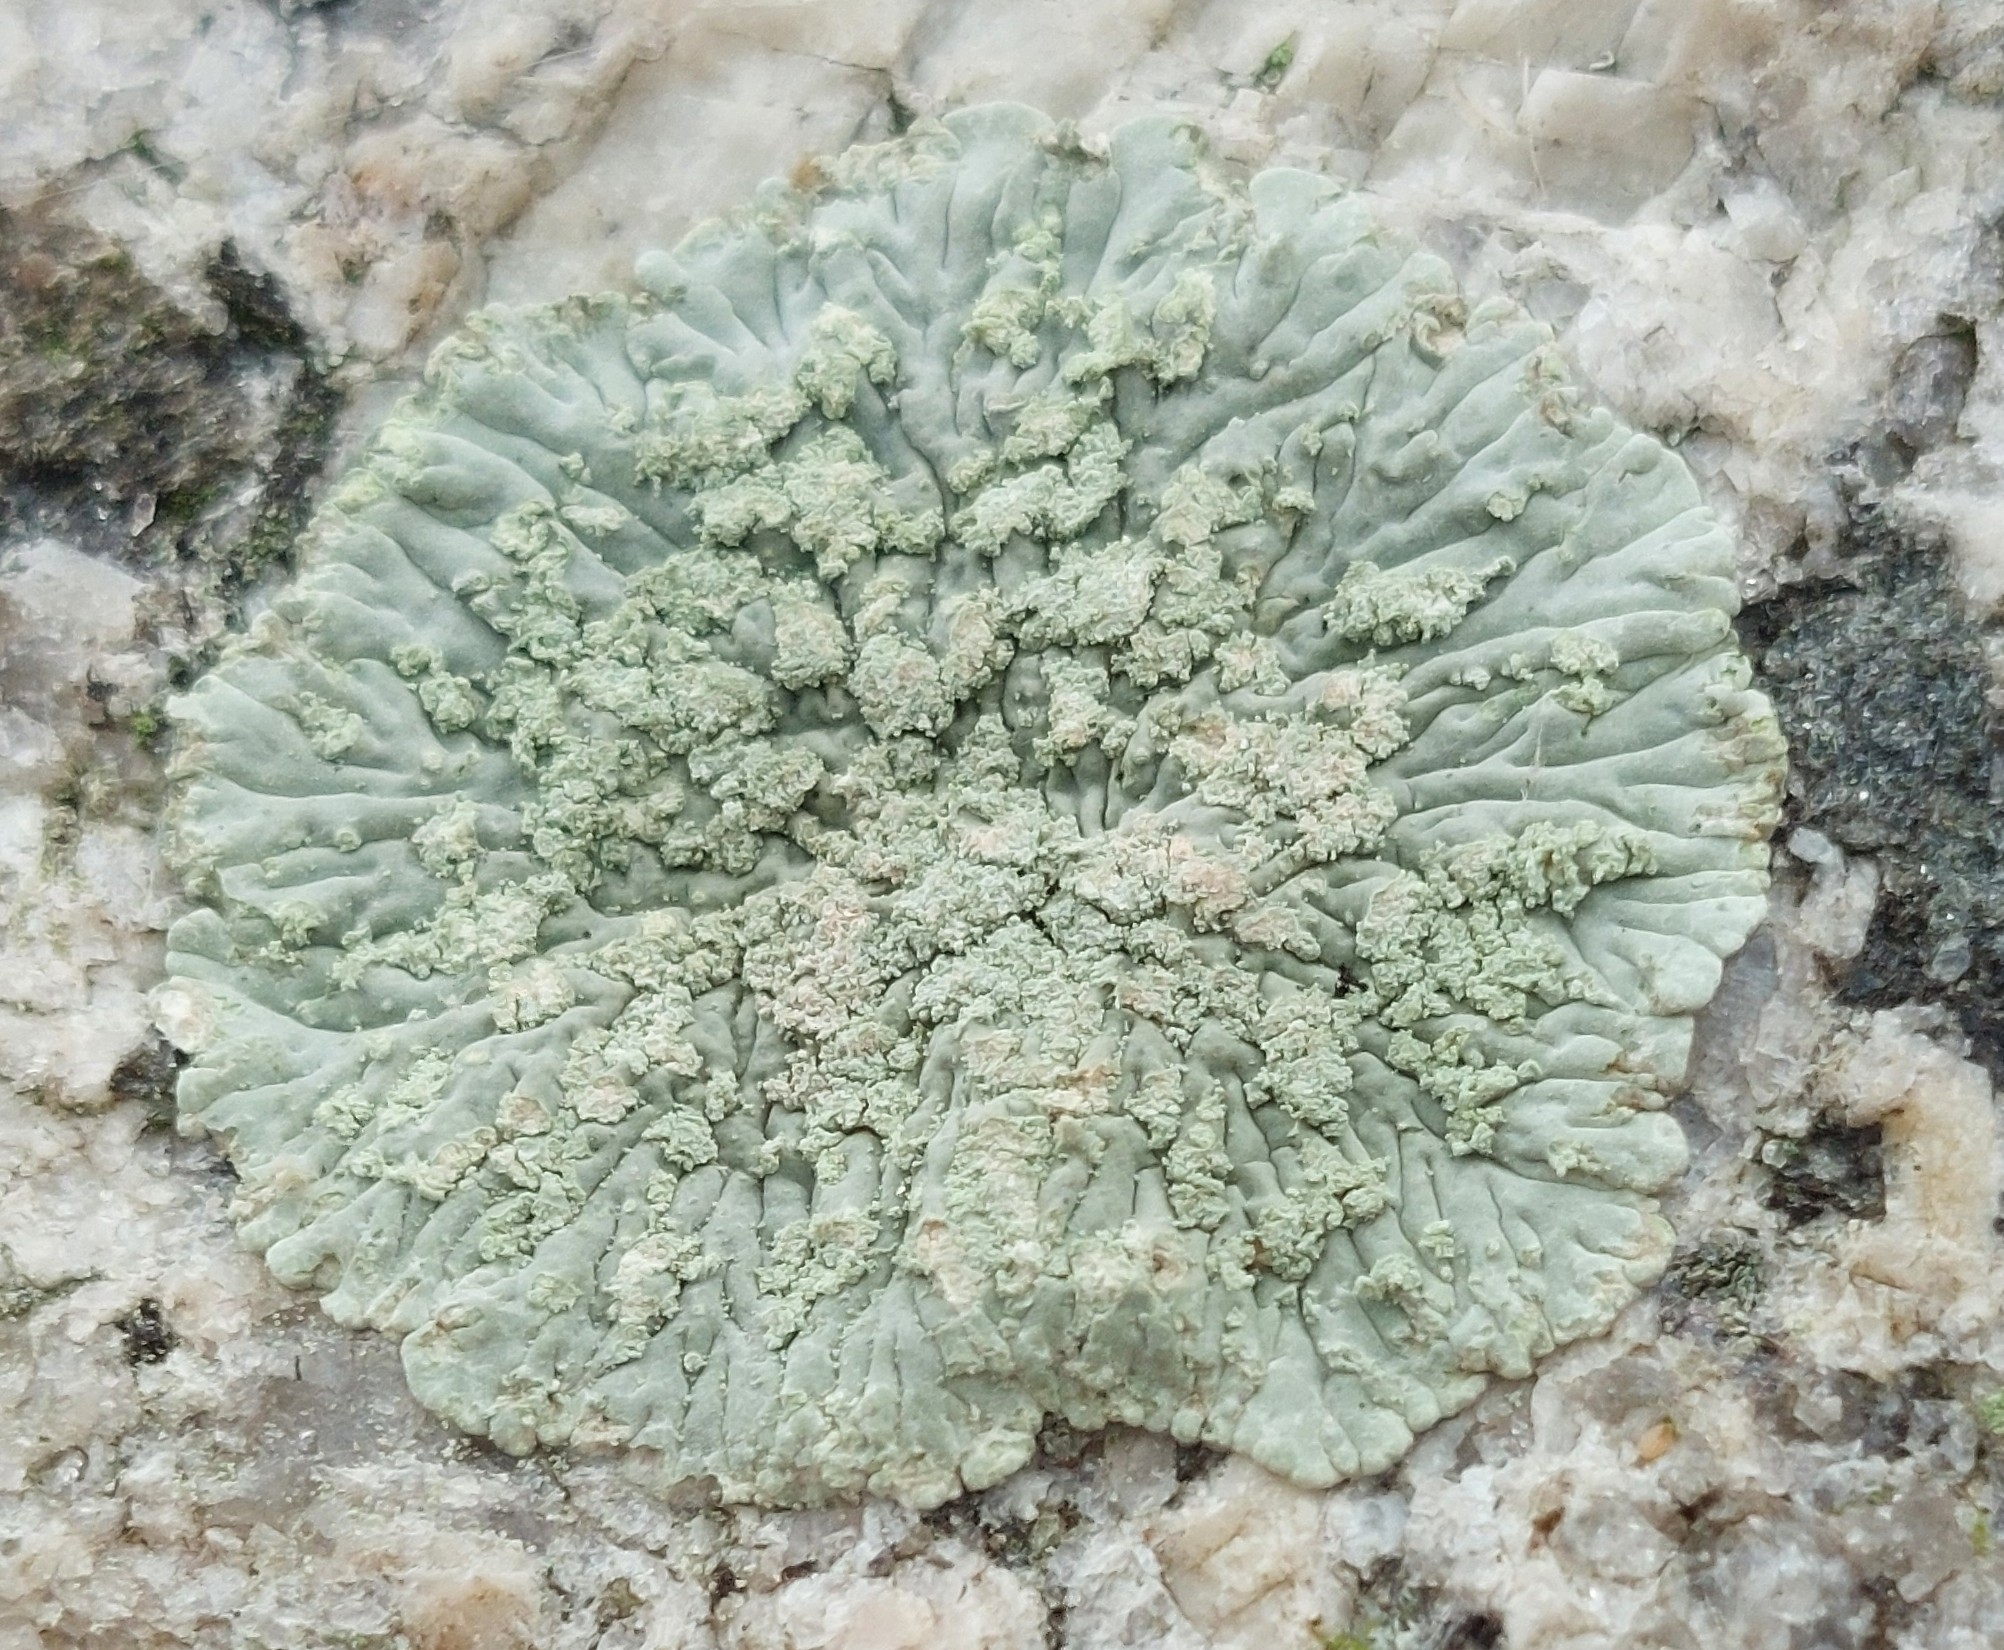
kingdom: Fungi
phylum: Ascomycota
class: Lecanoromycetes
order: Caliciales
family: Caliciaceae
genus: Diploicia
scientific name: Diploicia canescens
